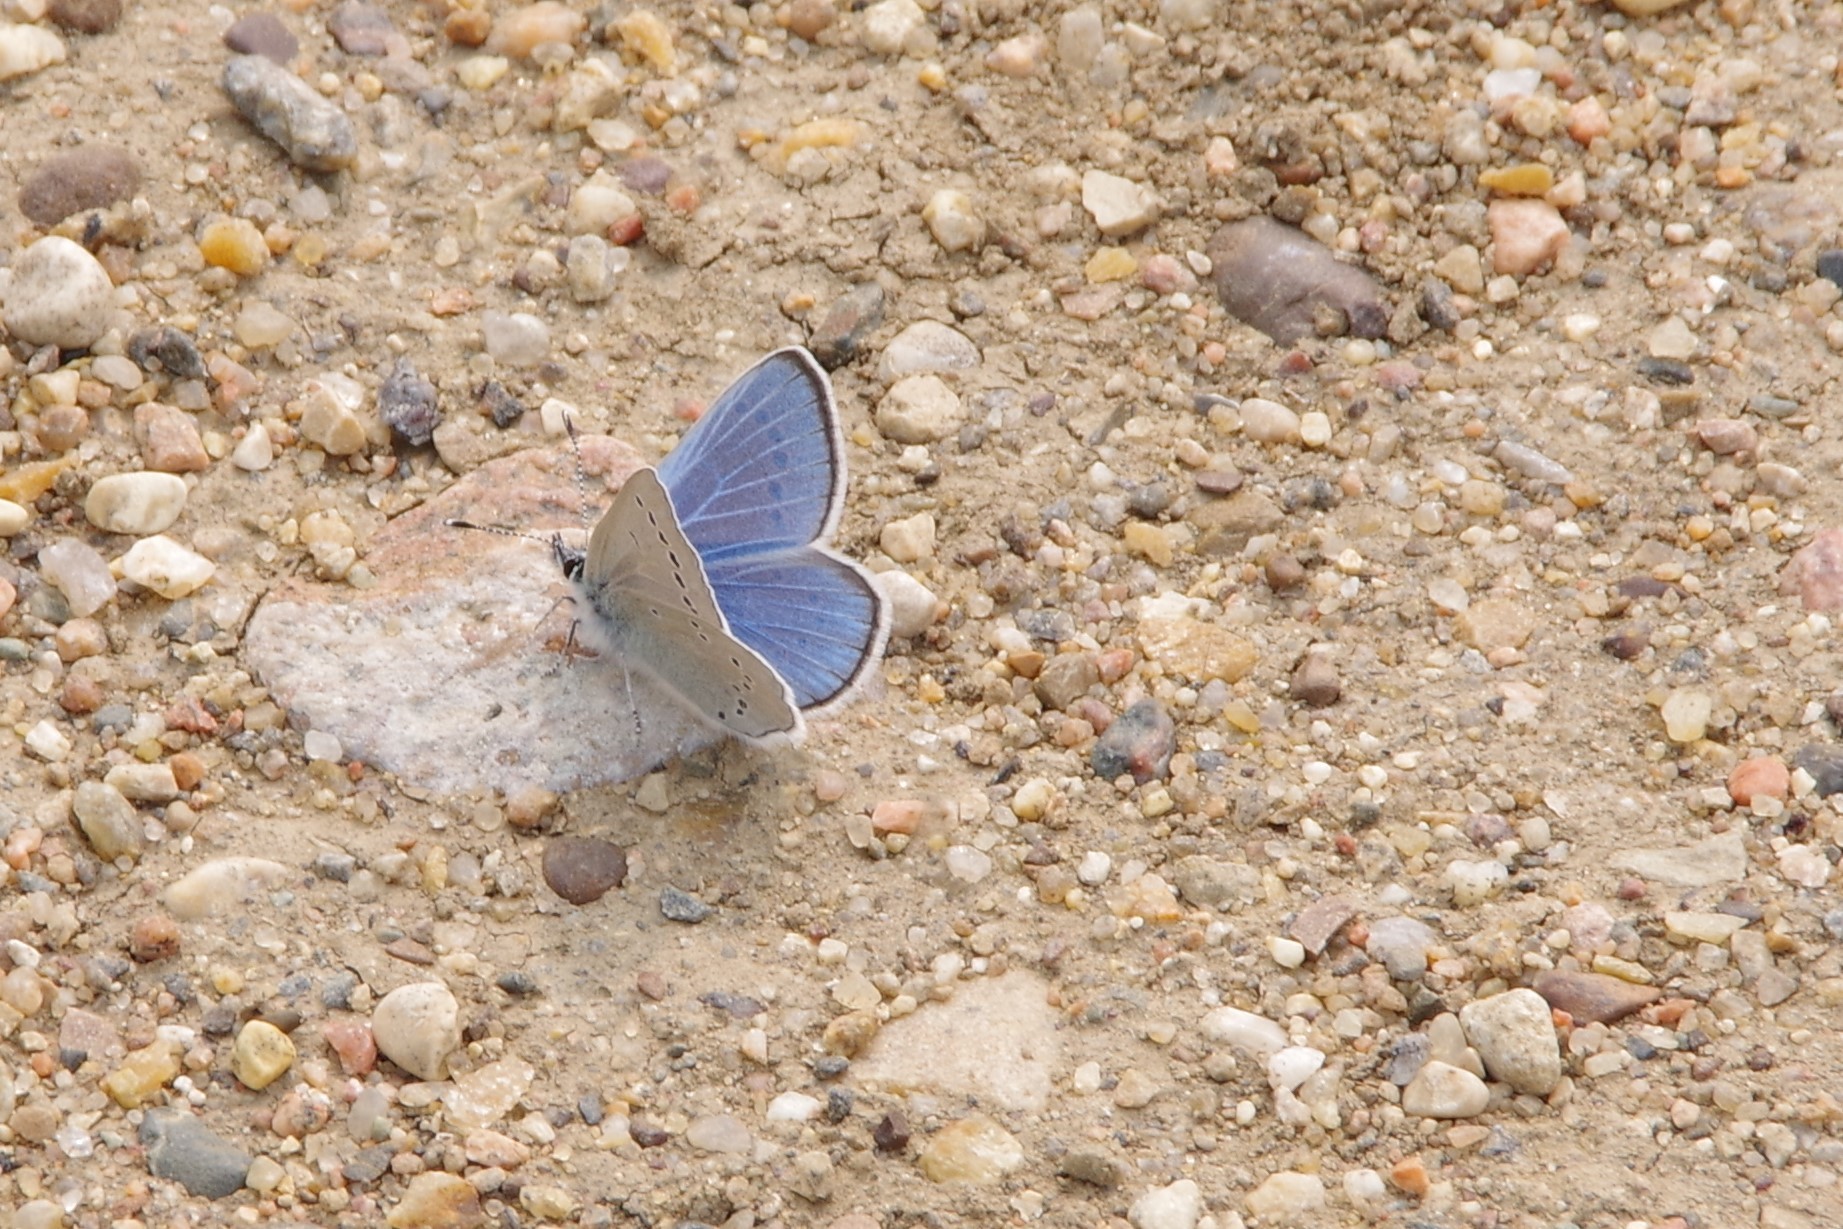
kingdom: Animalia
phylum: Arthropoda
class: Insecta
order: Lepidoptera
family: Lycaenidae
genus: Glaucopsyche
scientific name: Glaucopsyche lygdamus
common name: Silvery blue
